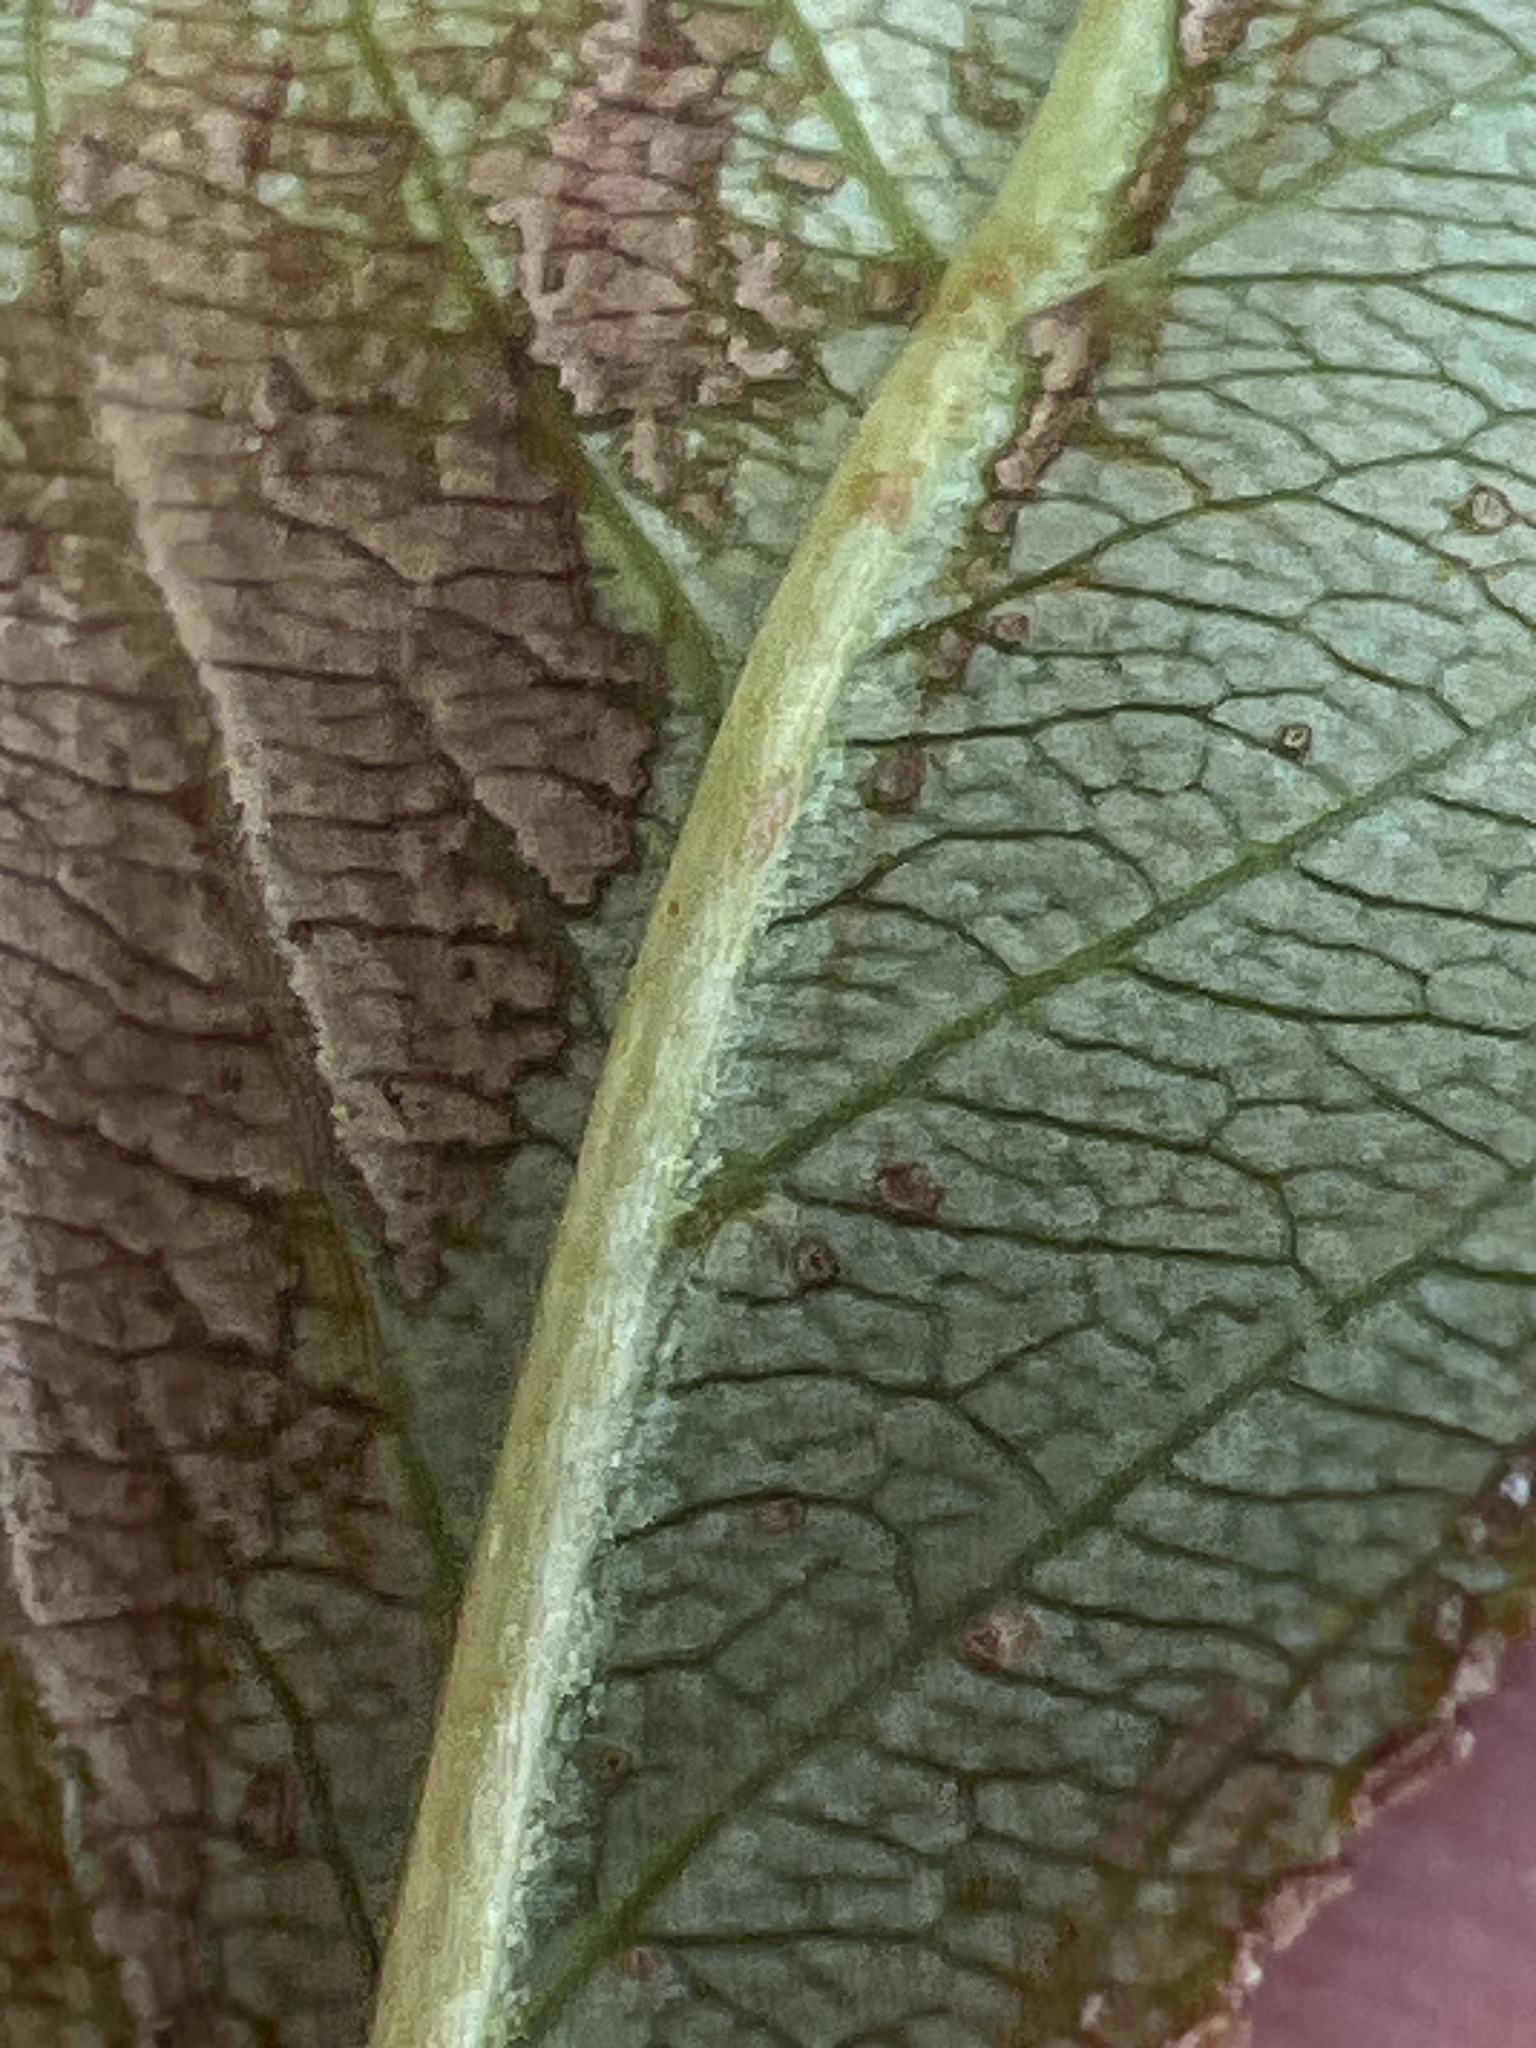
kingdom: Plantae
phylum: Tracheophyta
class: Magnoliopsida
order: Rosales
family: Rosaceae
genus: Aronia
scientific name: Aronia melanocarpa
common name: Black chokeberry
